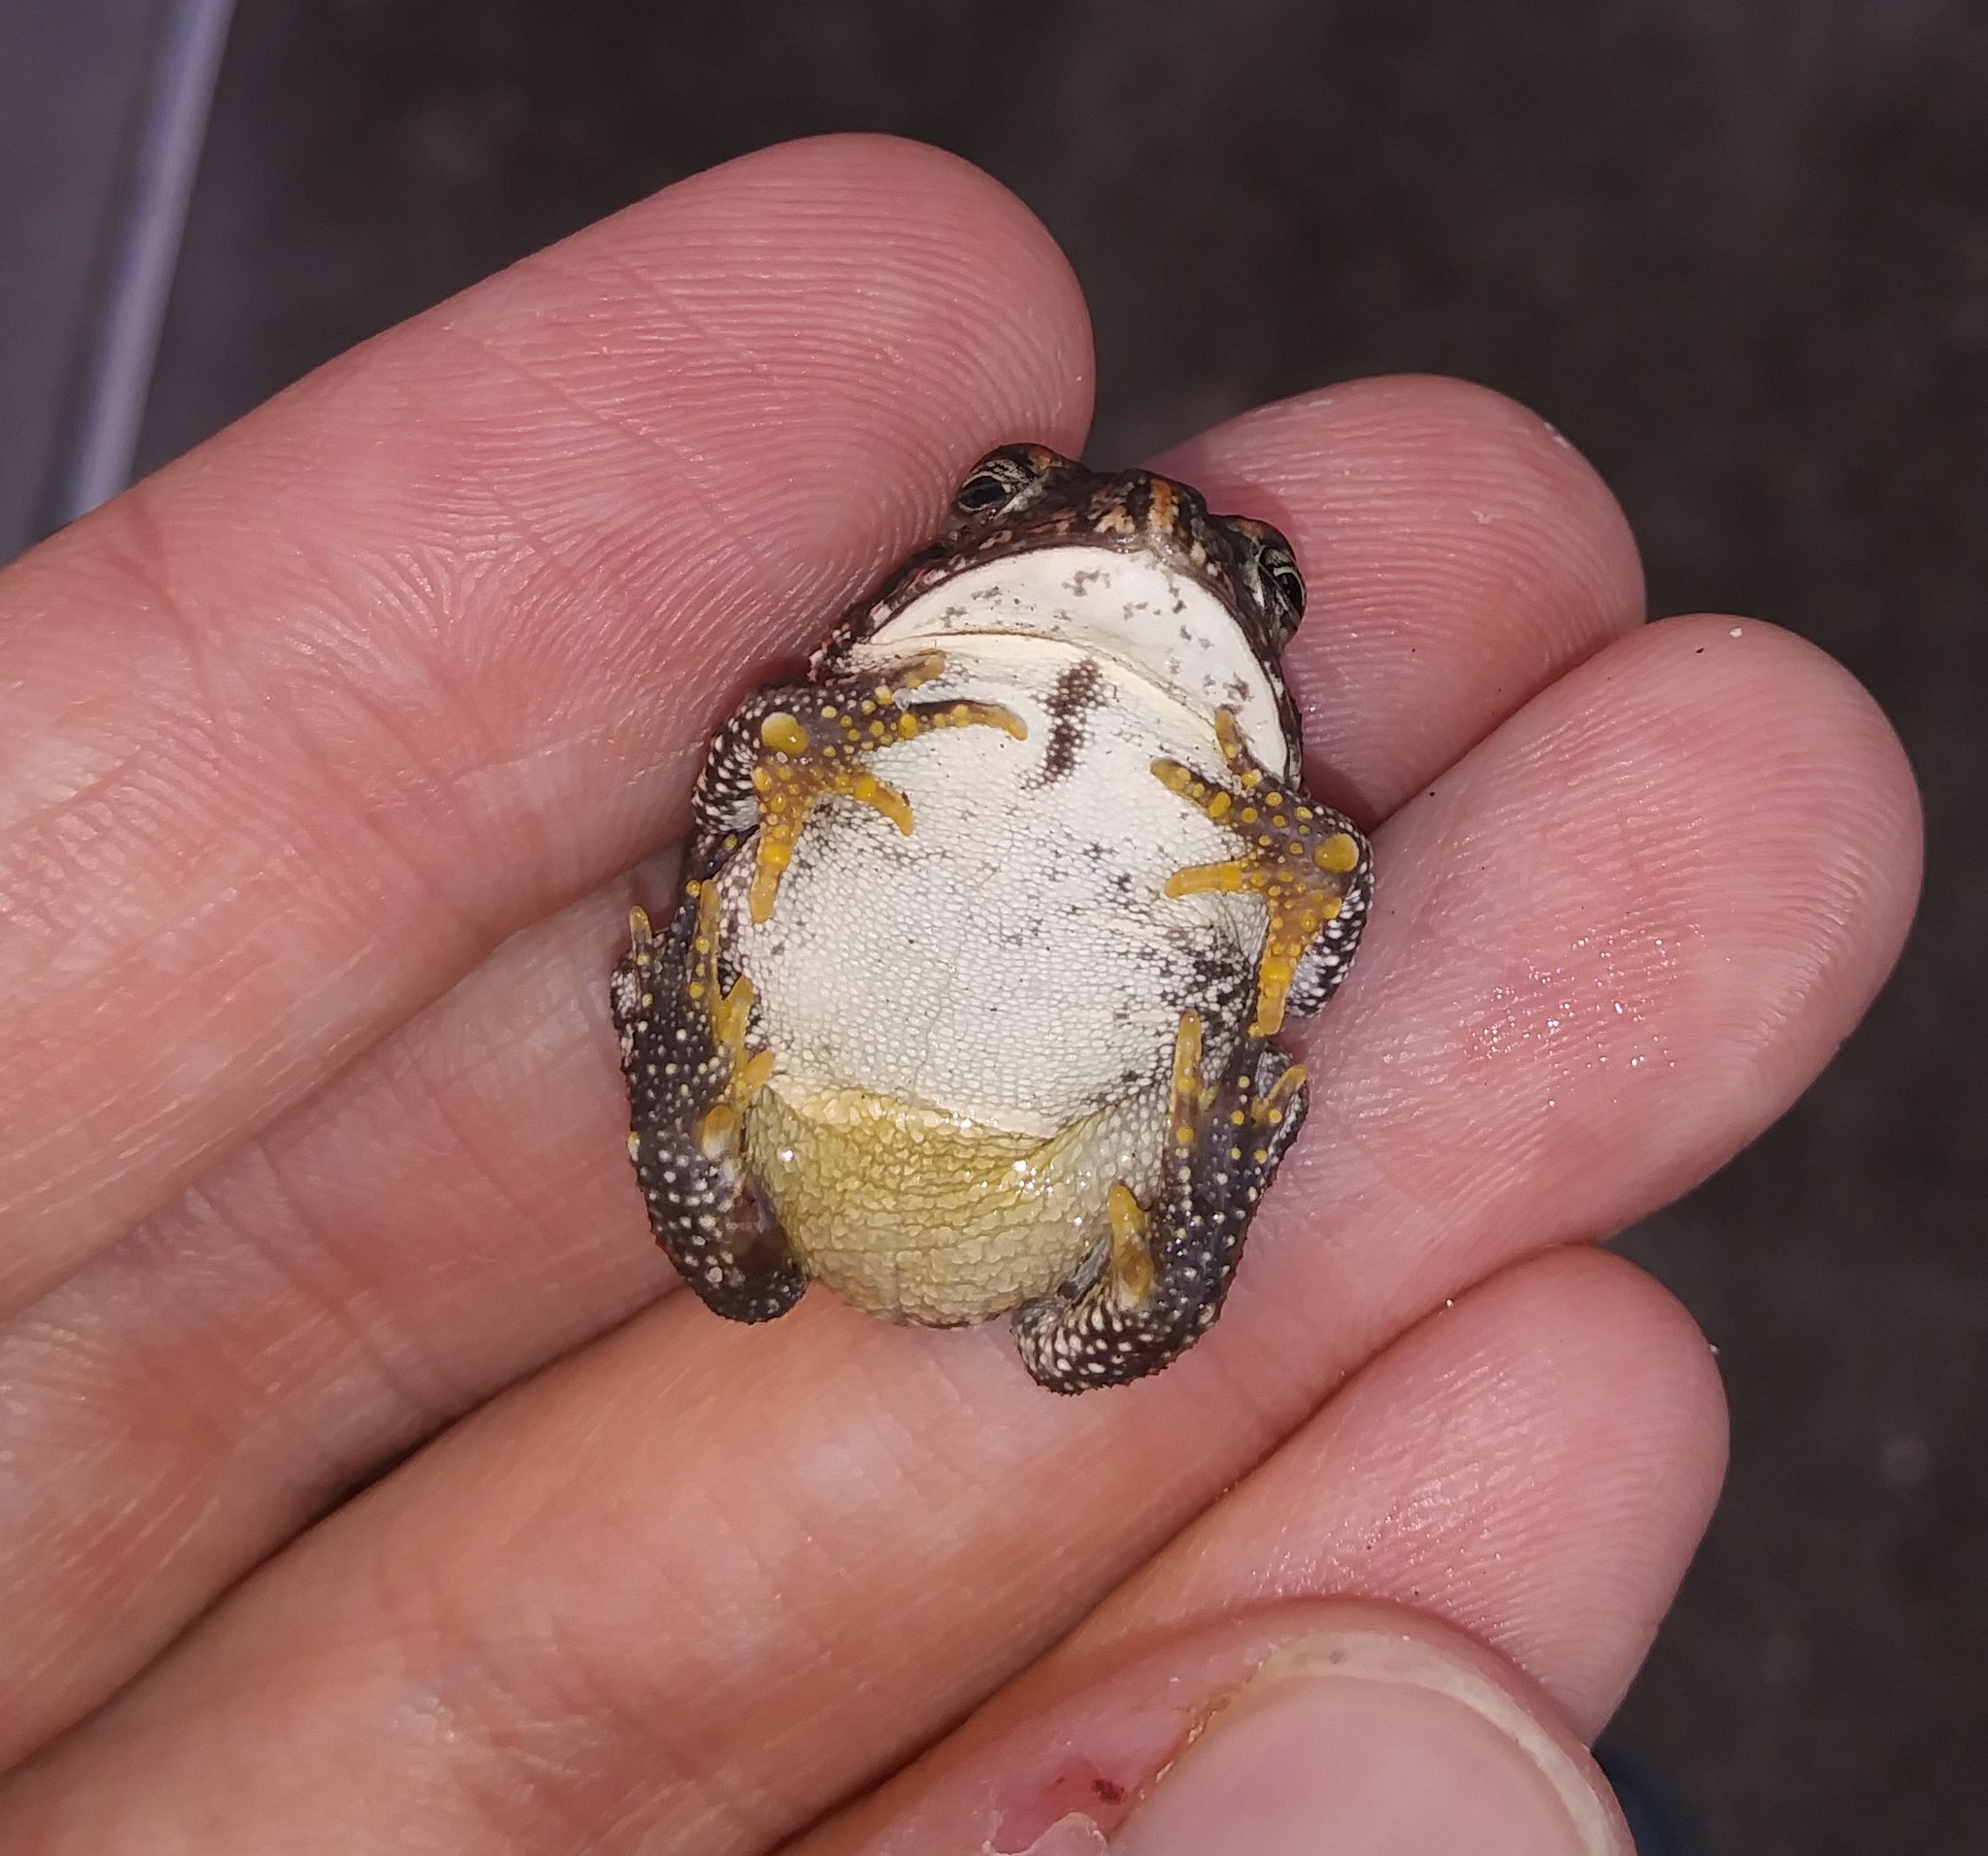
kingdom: Animalia
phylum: Chordata
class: Amphibia
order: Anura
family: Bufonidae
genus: Anaxyrus
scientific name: Anaxyrus terrestris
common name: Southern toad
